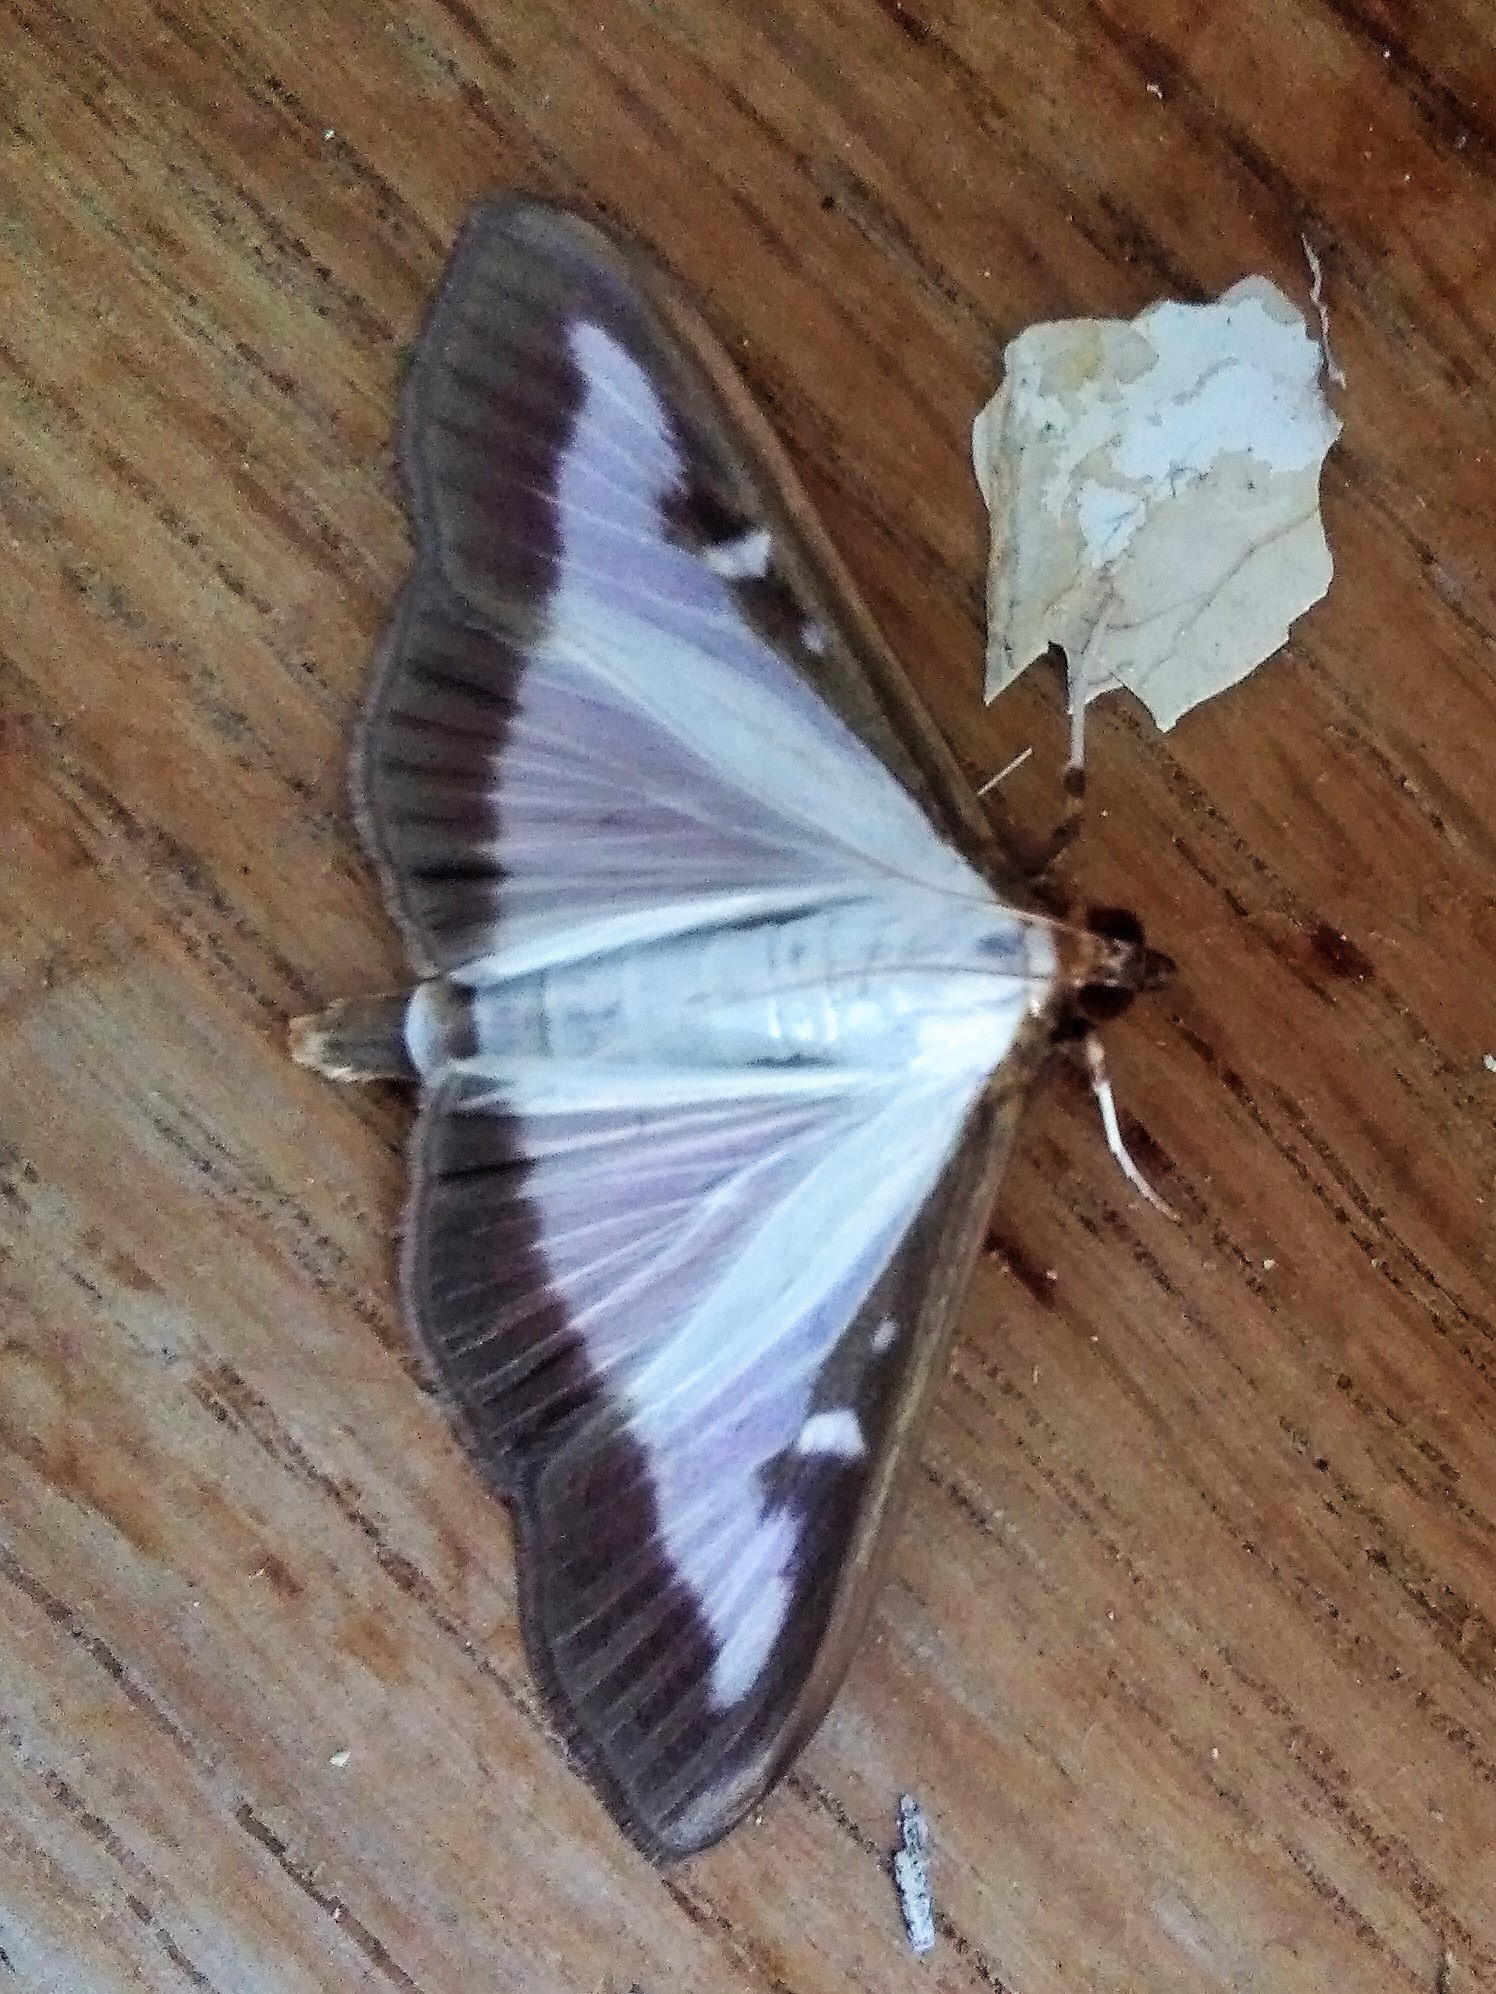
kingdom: Animalia
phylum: Arthropoda
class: Insecta
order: Lepidoptera
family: Crambidae
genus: Cydalima
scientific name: Cydalima perspectalis
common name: Box tree moth
